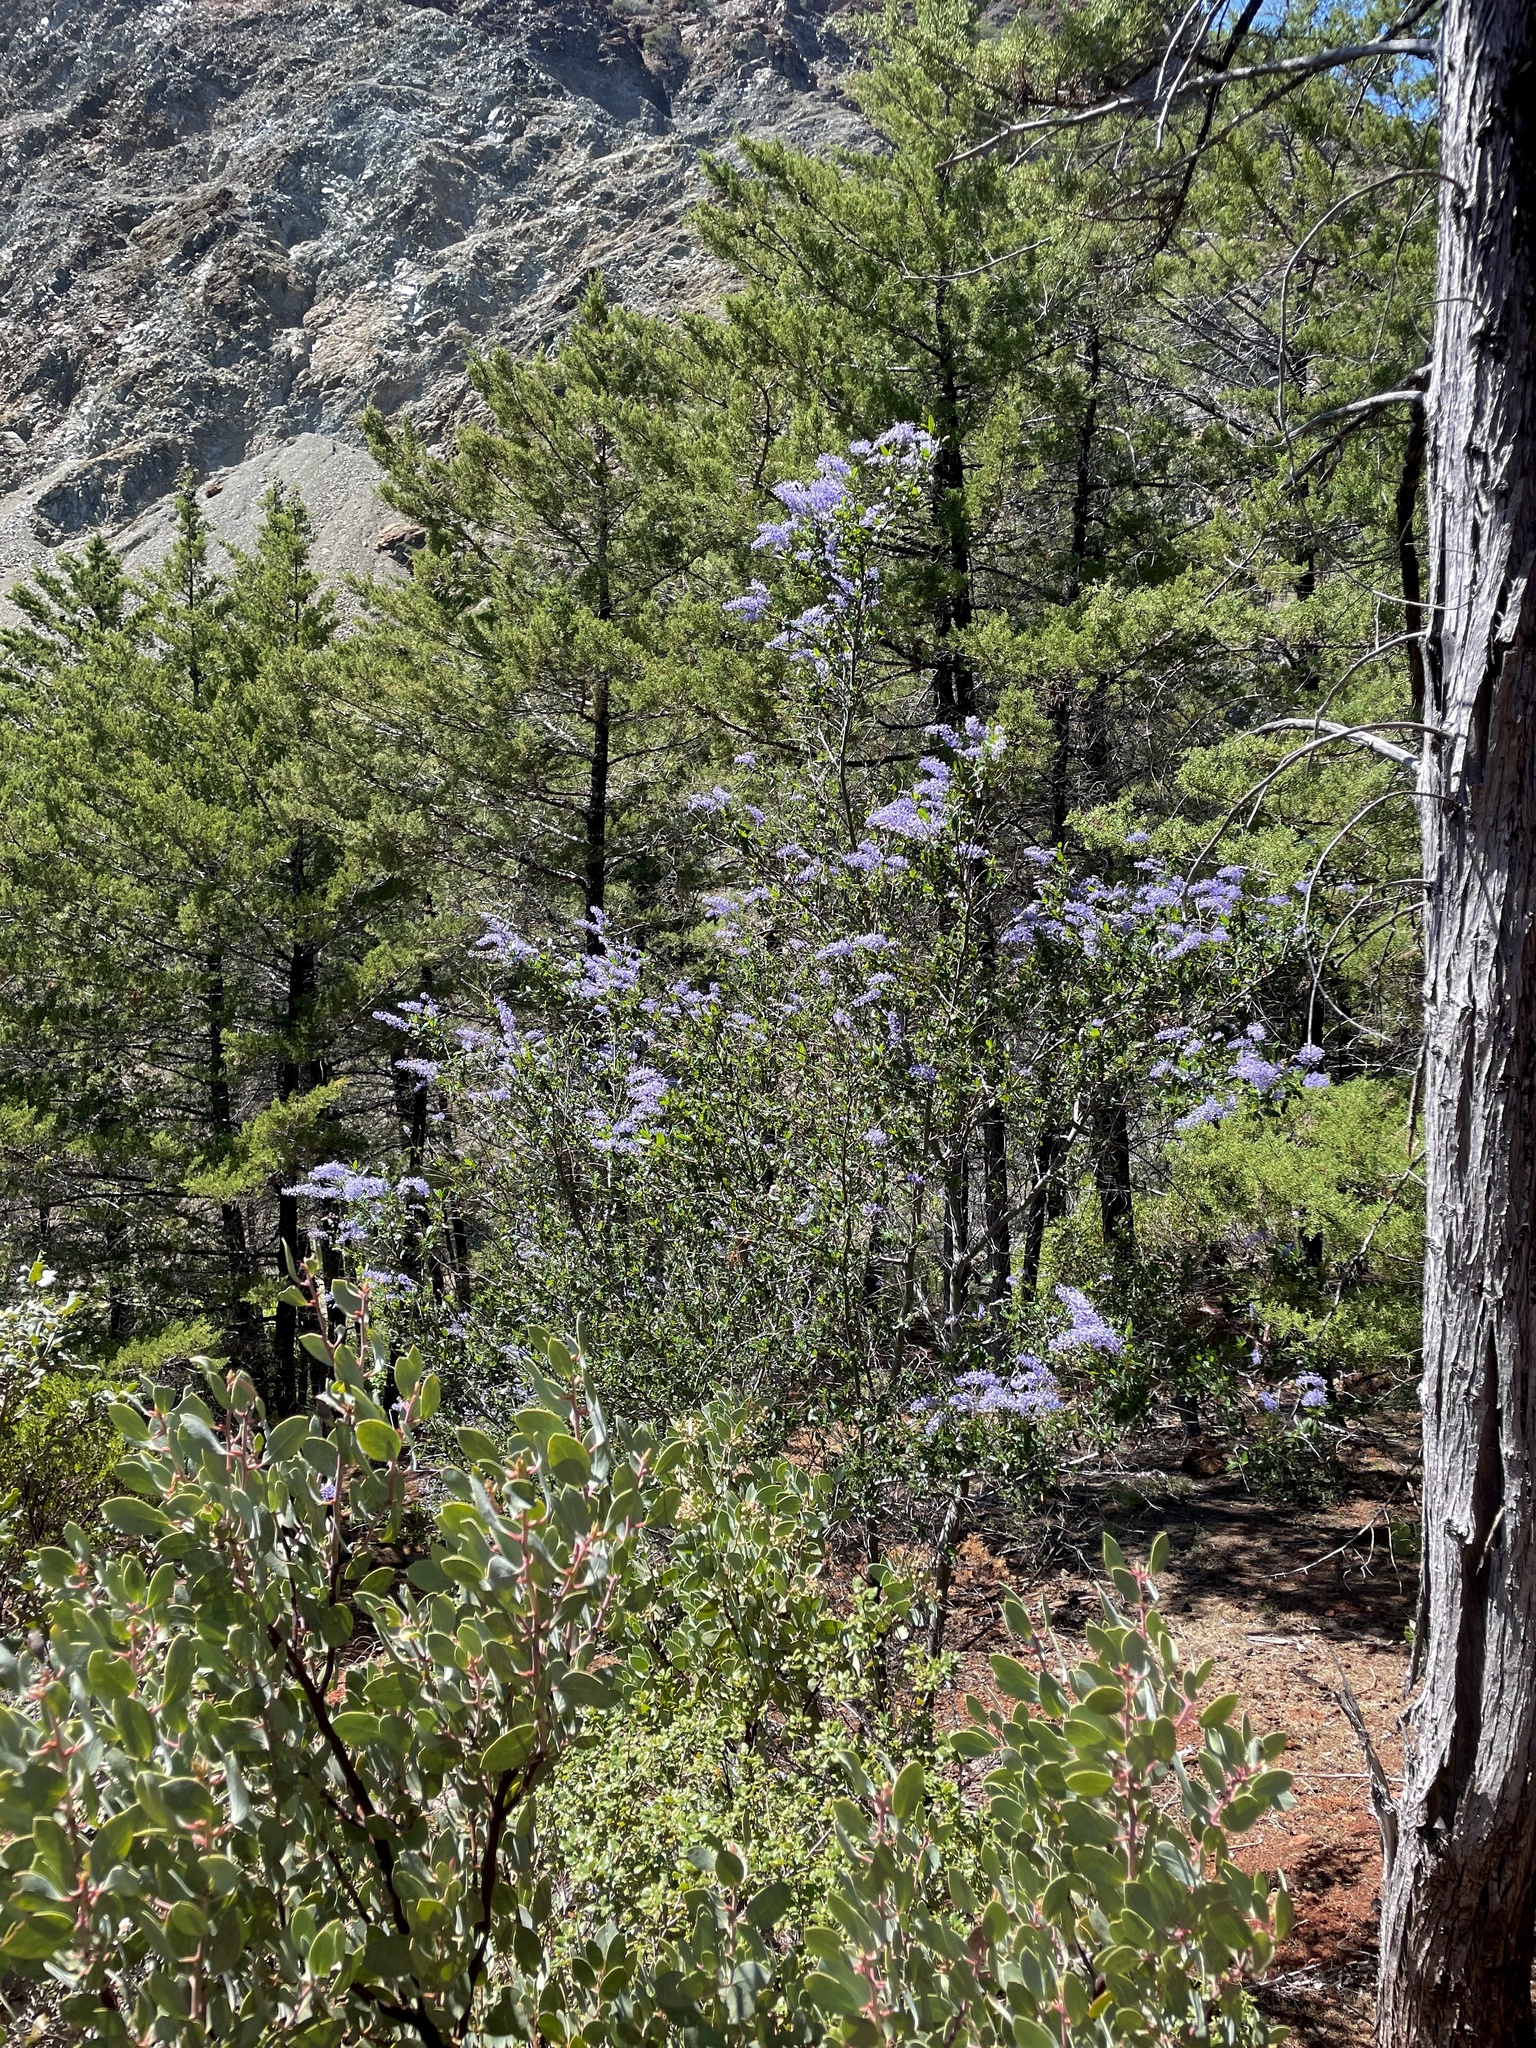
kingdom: Plantae
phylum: Tracheophyta
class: Magnoliopsida
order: Rosales
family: Rhamnaceae
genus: Ceanothus
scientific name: Ceanothus parryi
